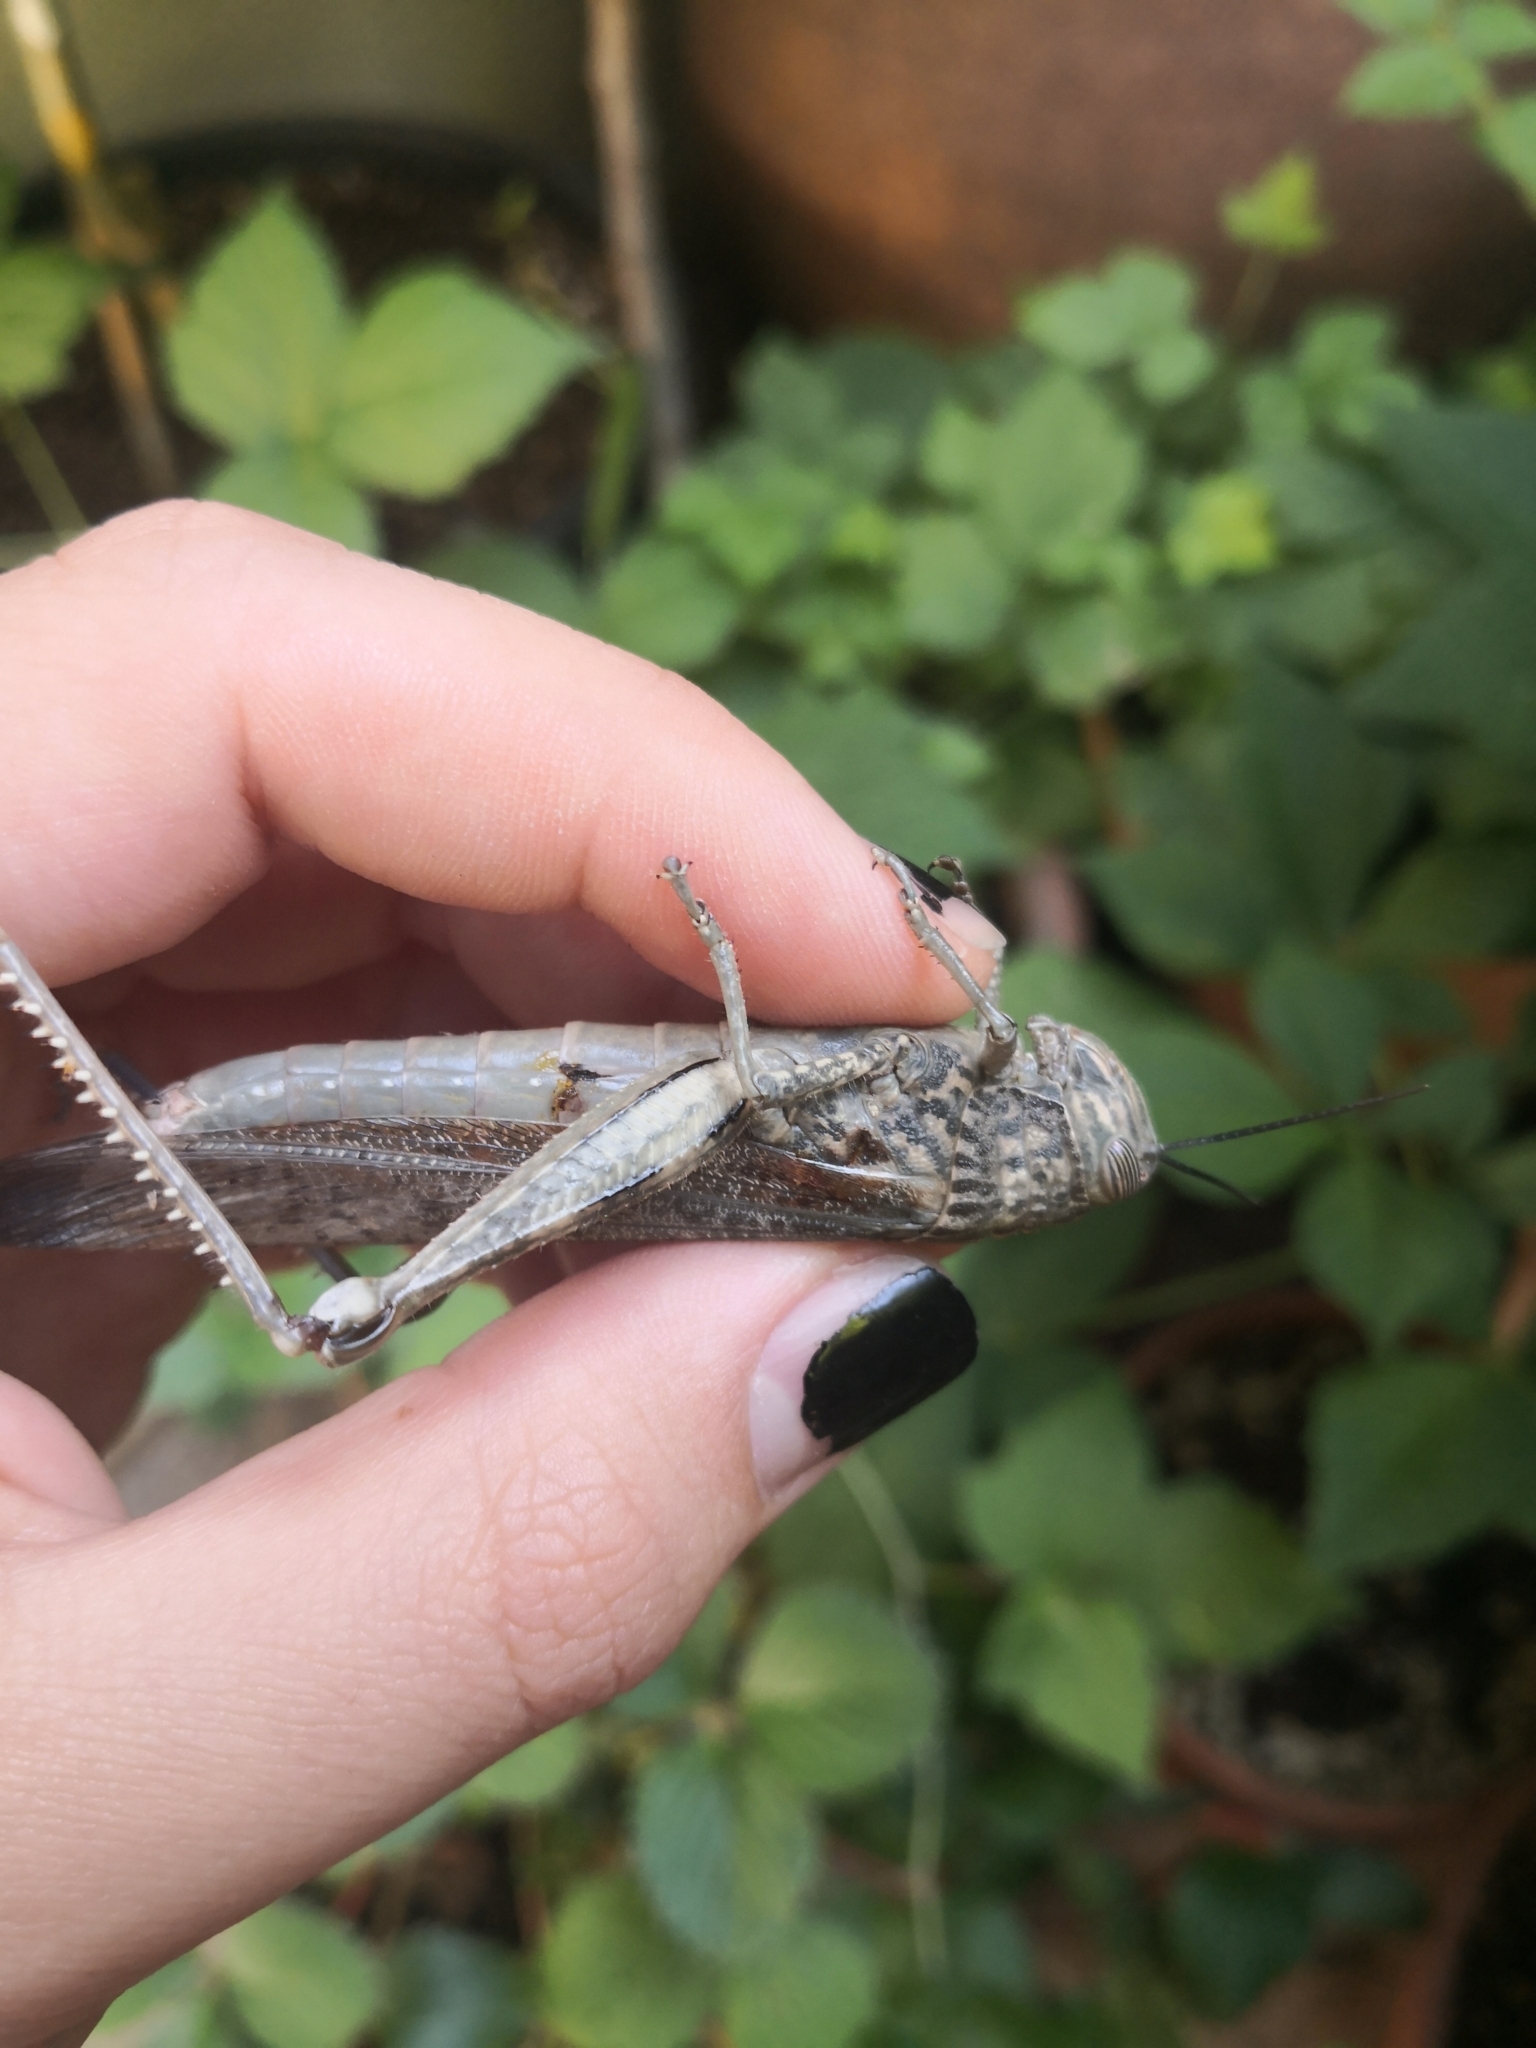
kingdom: Animalia
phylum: Arthropoda
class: Insecta
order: Orthoptera
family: Acrididae
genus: Anacridium
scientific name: Anacridium aegyptium
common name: Egyptian grasshopper
